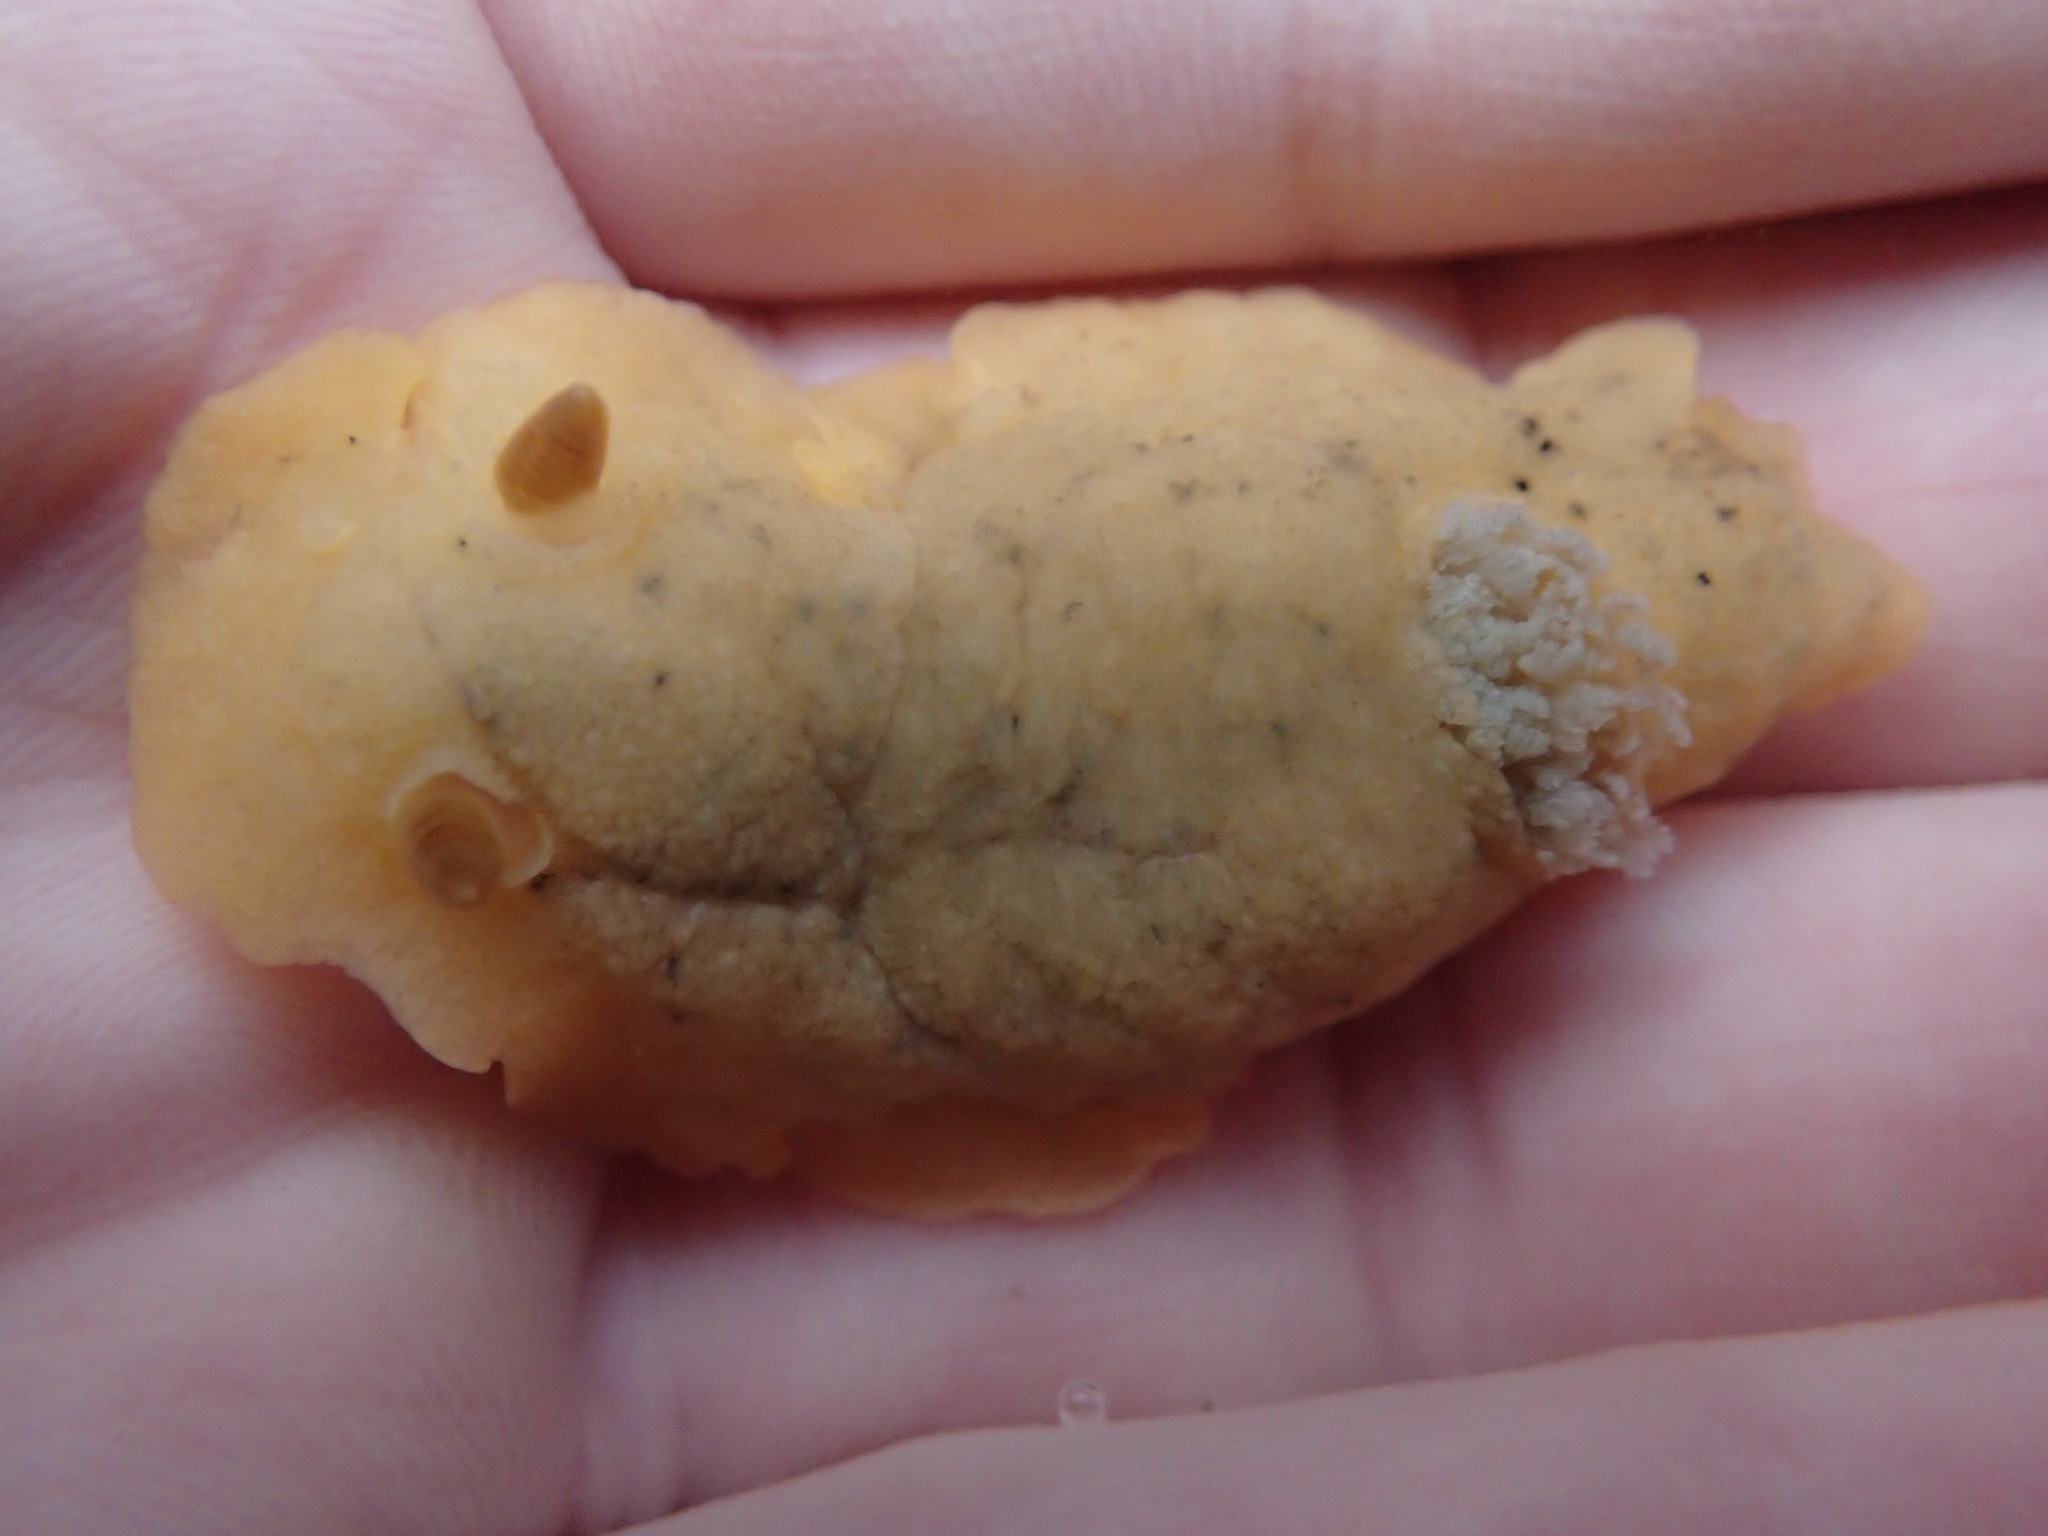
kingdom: Animalia
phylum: Mollusca
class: Gastropoda
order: Nudibranchia
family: Discodorididae
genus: Geitodoris
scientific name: Geitodoris heathi
